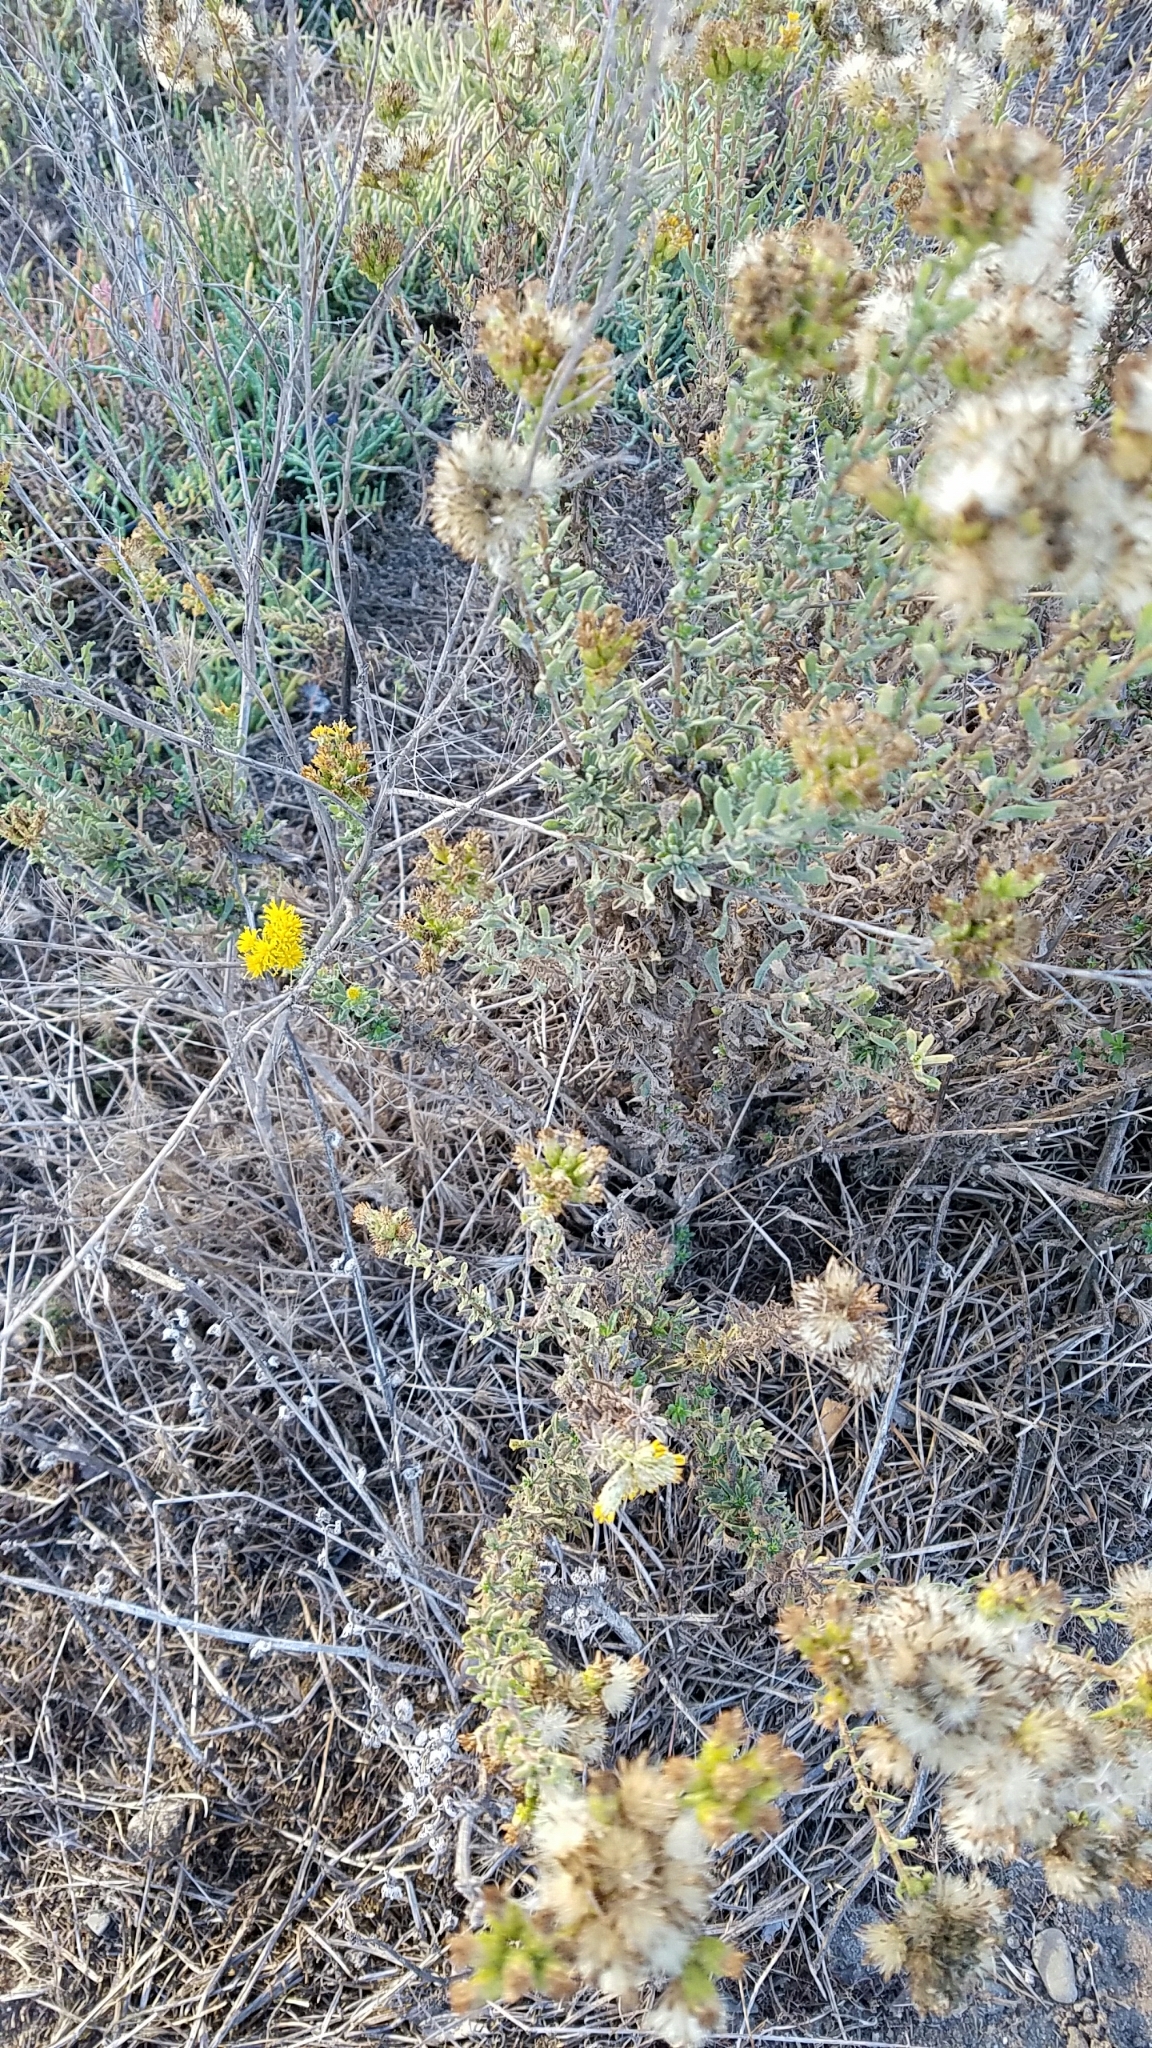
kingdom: Plantae
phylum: Tracheophyta
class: Magnoliopsida
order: Asterales
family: Asteraceae
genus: Isocoma
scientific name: Isocoma menziesii
